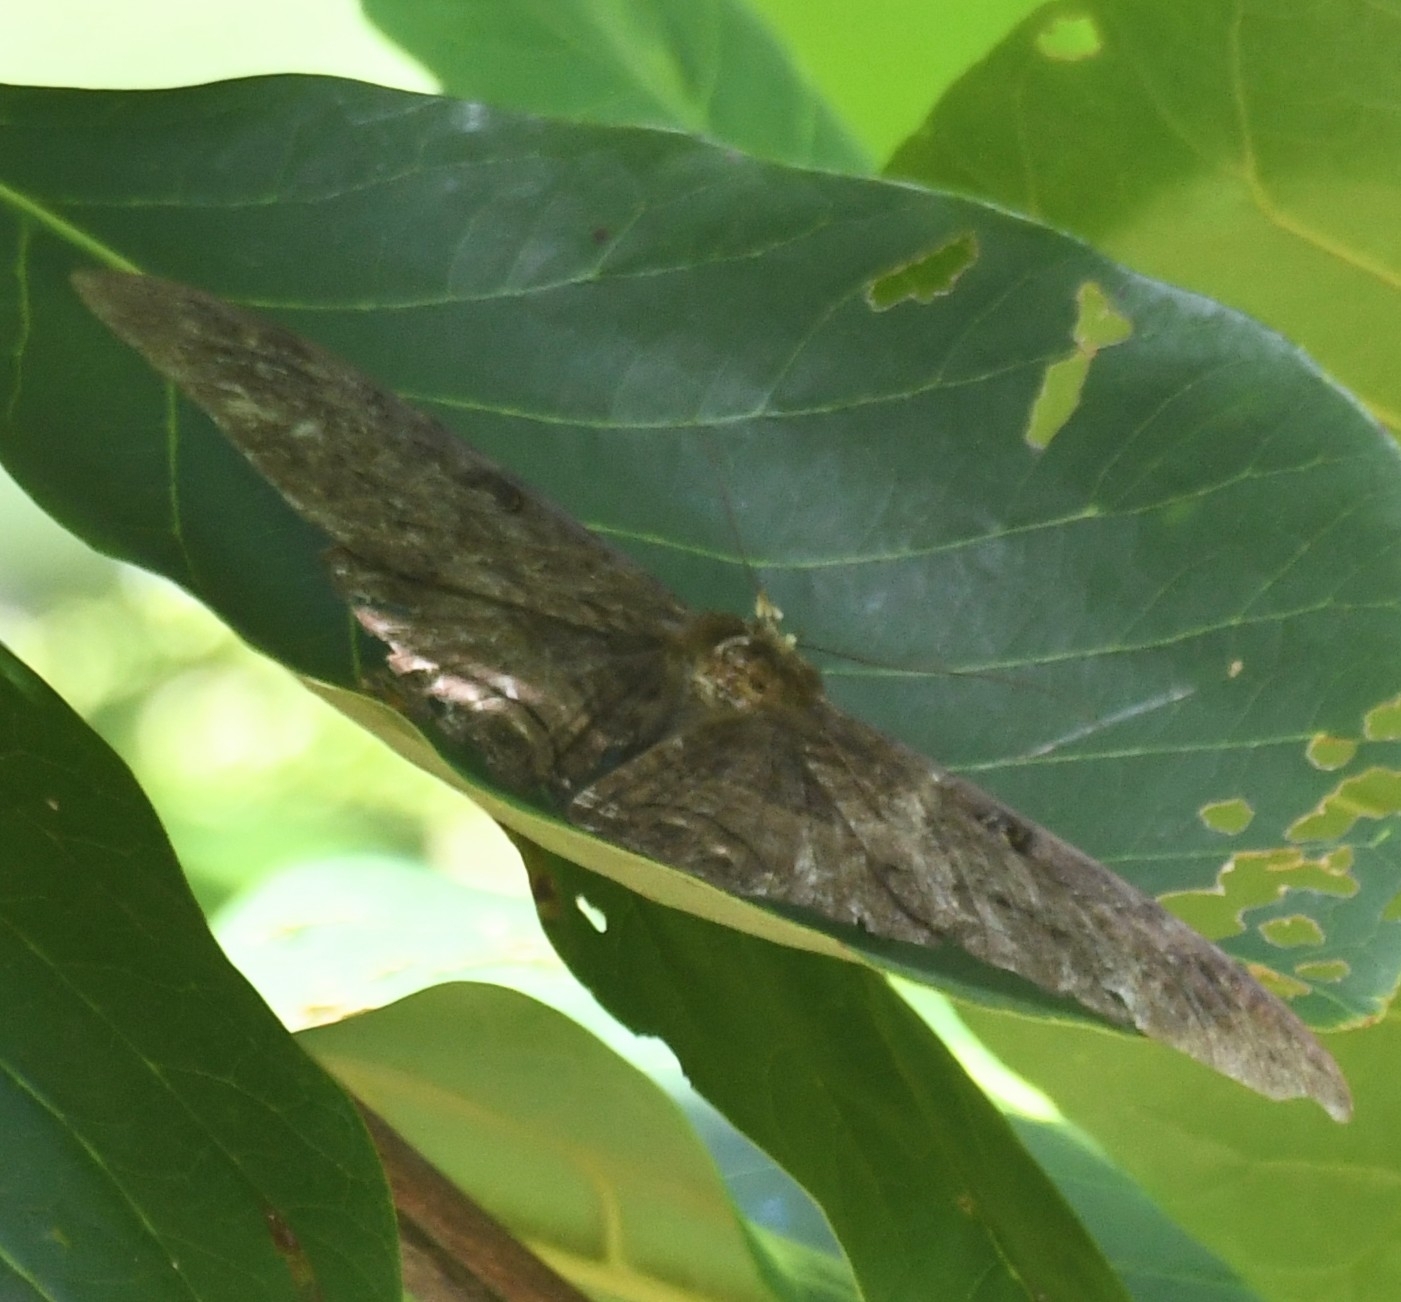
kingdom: Animalia
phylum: Arthropoda
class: Insecta
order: Lepidoptera
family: Erebidae
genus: Ascalapha
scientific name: Ascalapha odorata
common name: Black witch
